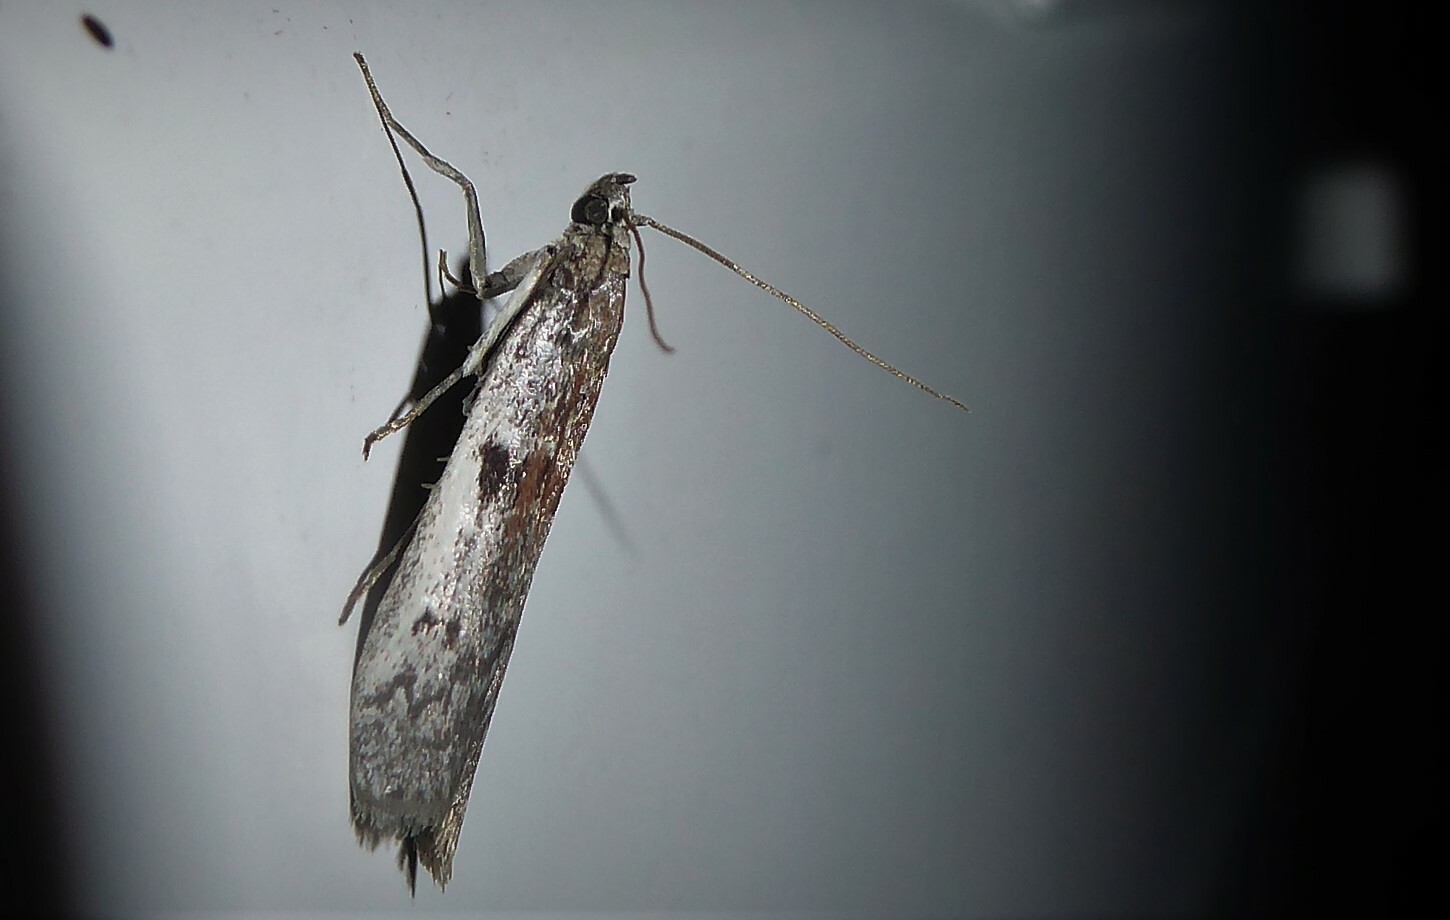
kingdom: Animalia
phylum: Arthropoda
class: Insecta
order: Lepidoptera
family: Pyralidae
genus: Patagoniodes
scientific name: Patagoniodes farinaria
